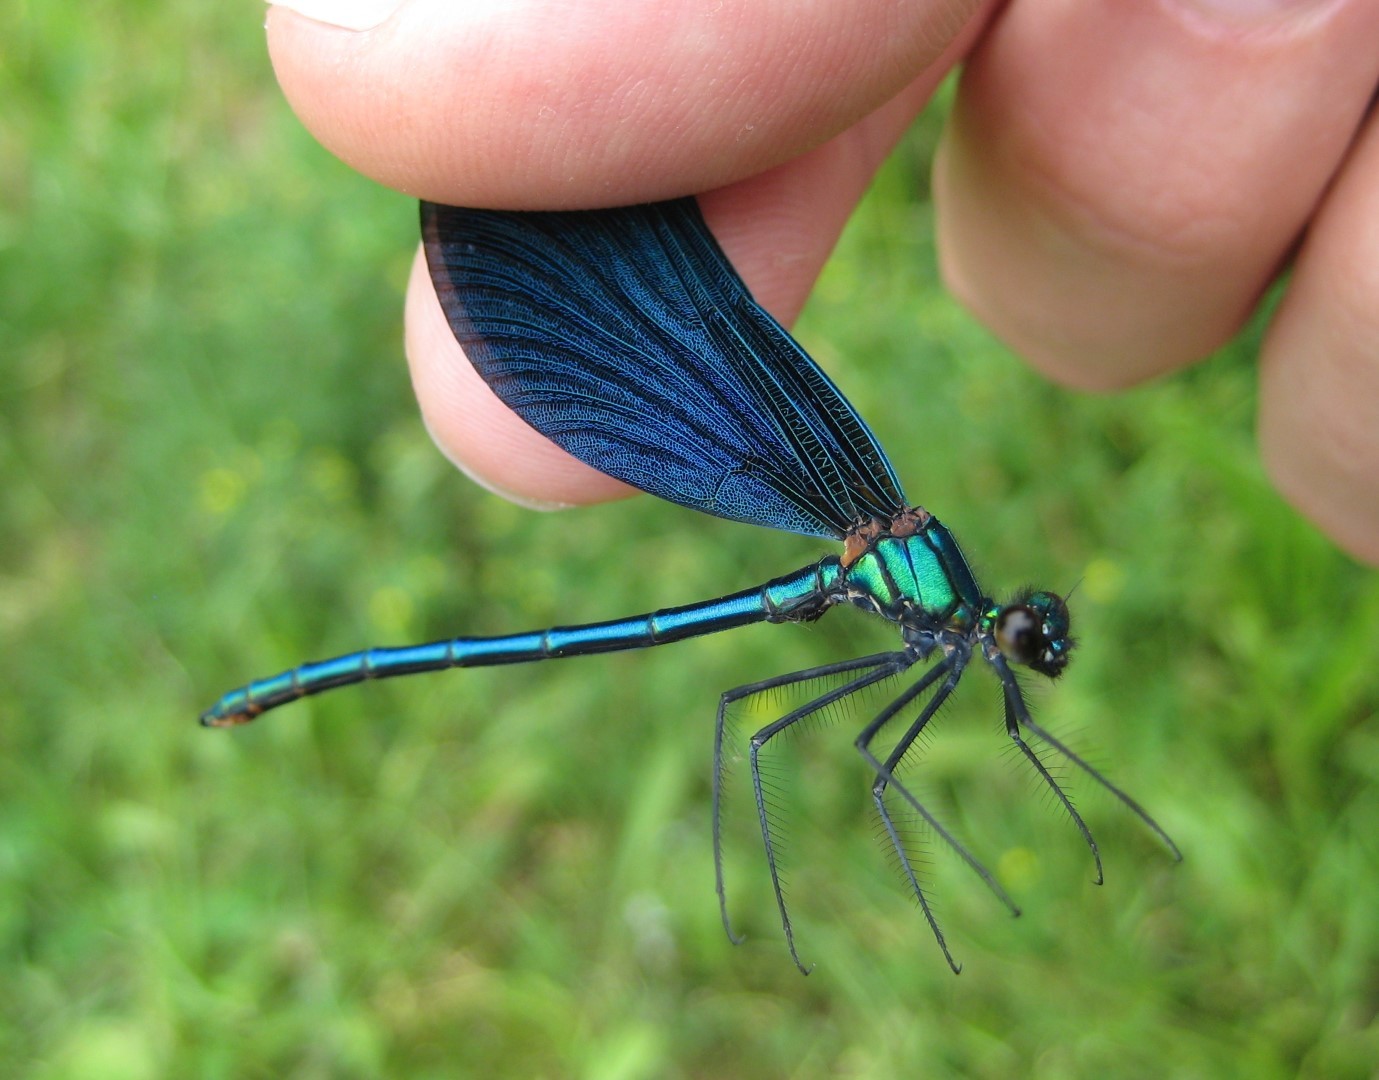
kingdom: Animalia
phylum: Arthropoda
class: Insecta
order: Odonata
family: Calopterygidae
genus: Calopteryx
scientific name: Calopteryx virgo
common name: Beautiful demoiselle
